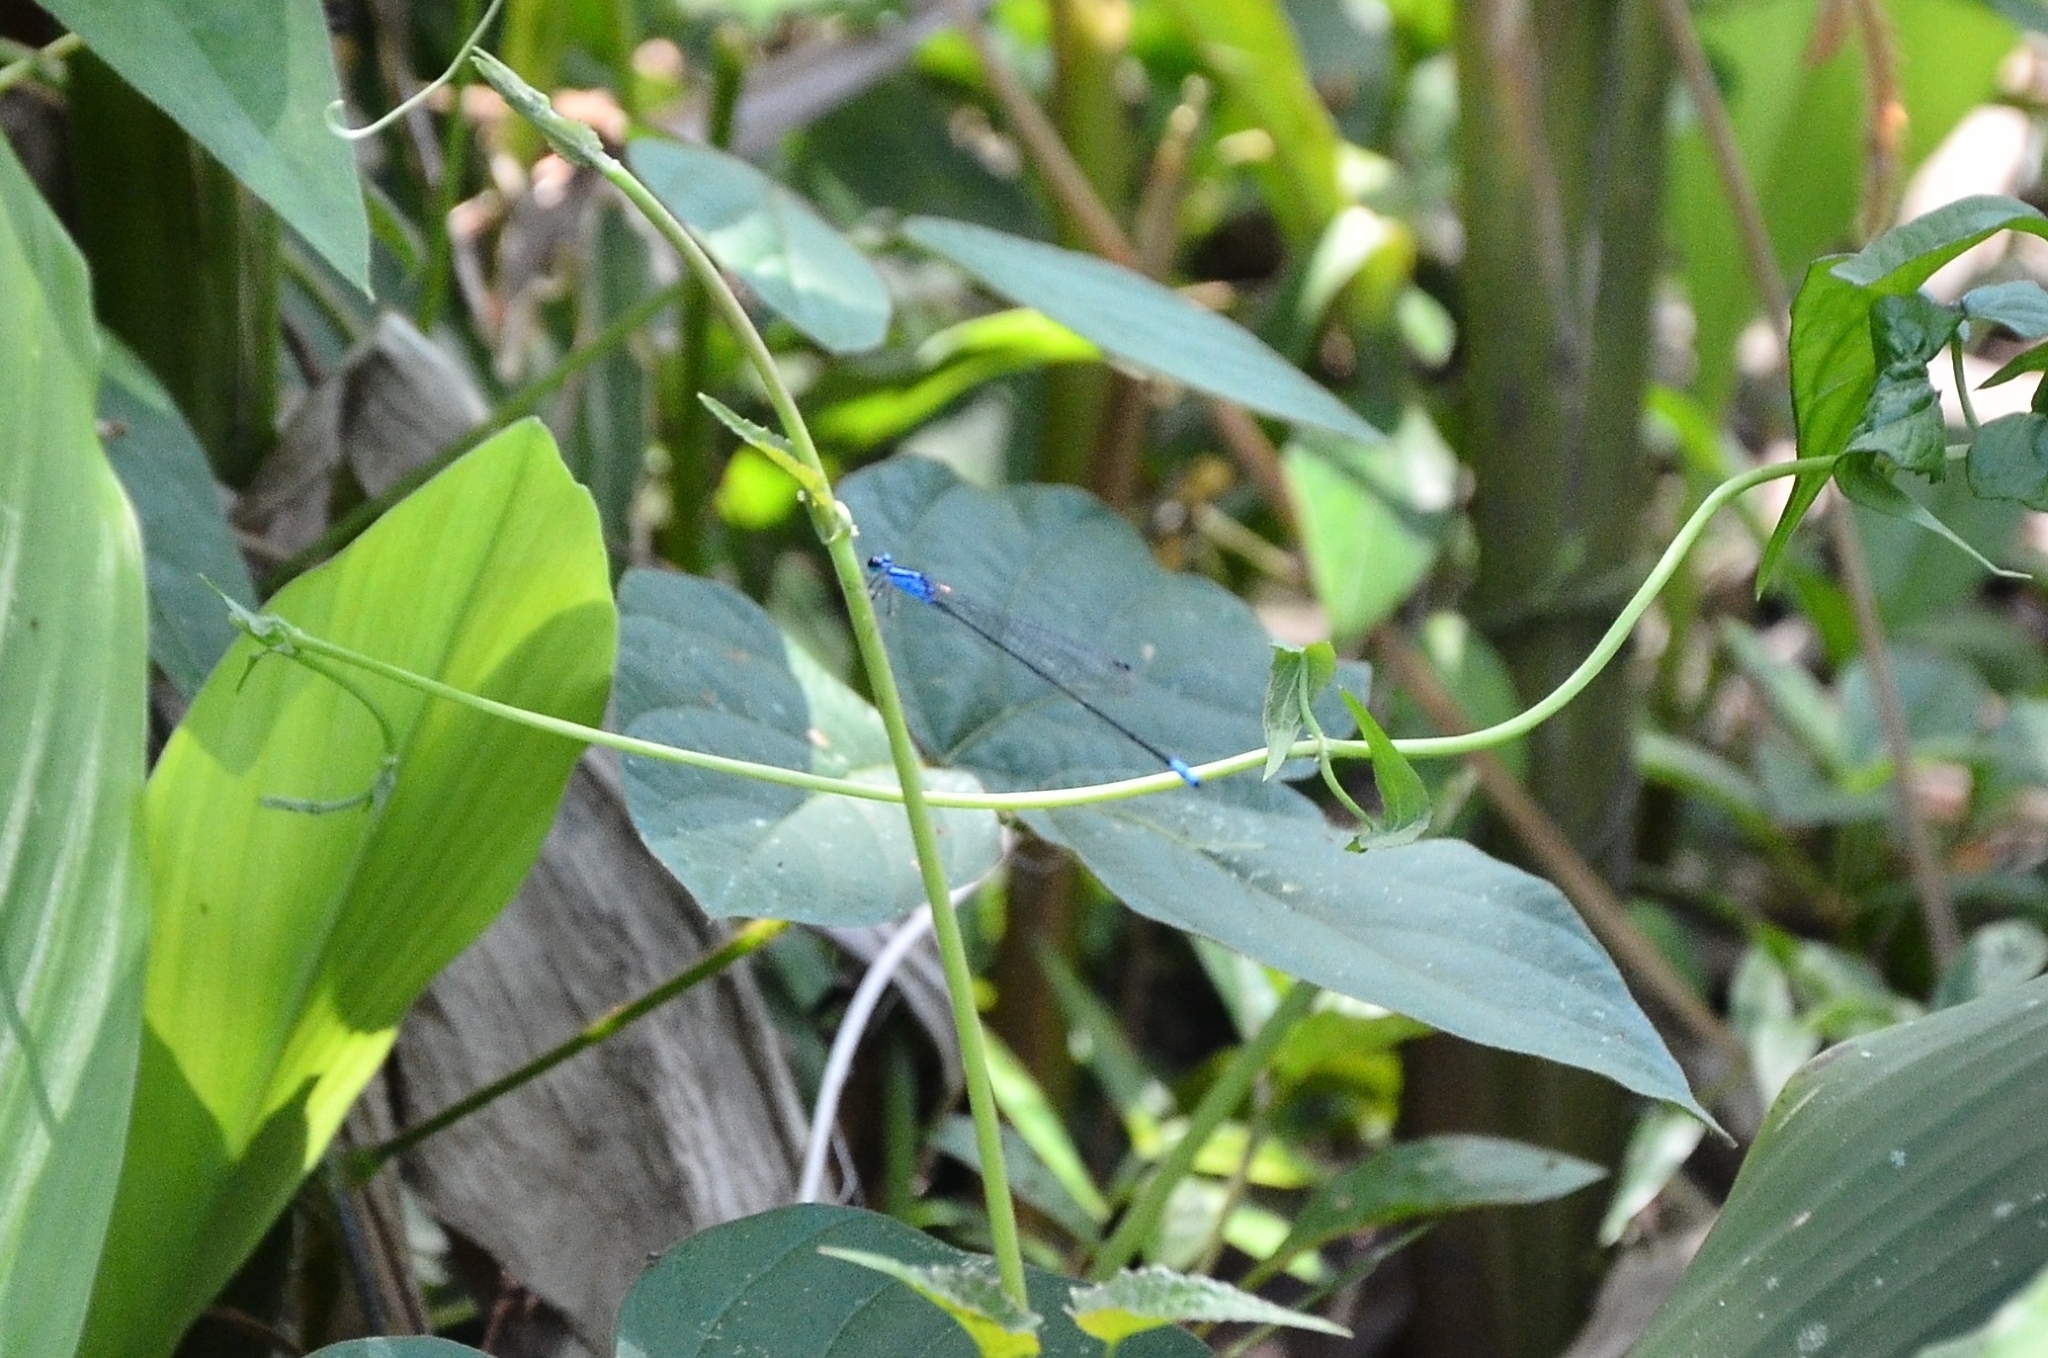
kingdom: Animalia
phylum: Arthropoda
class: Insecta
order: Odonata
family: Coenagrionidae
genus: Archibasis
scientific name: Archibasis oscillans
